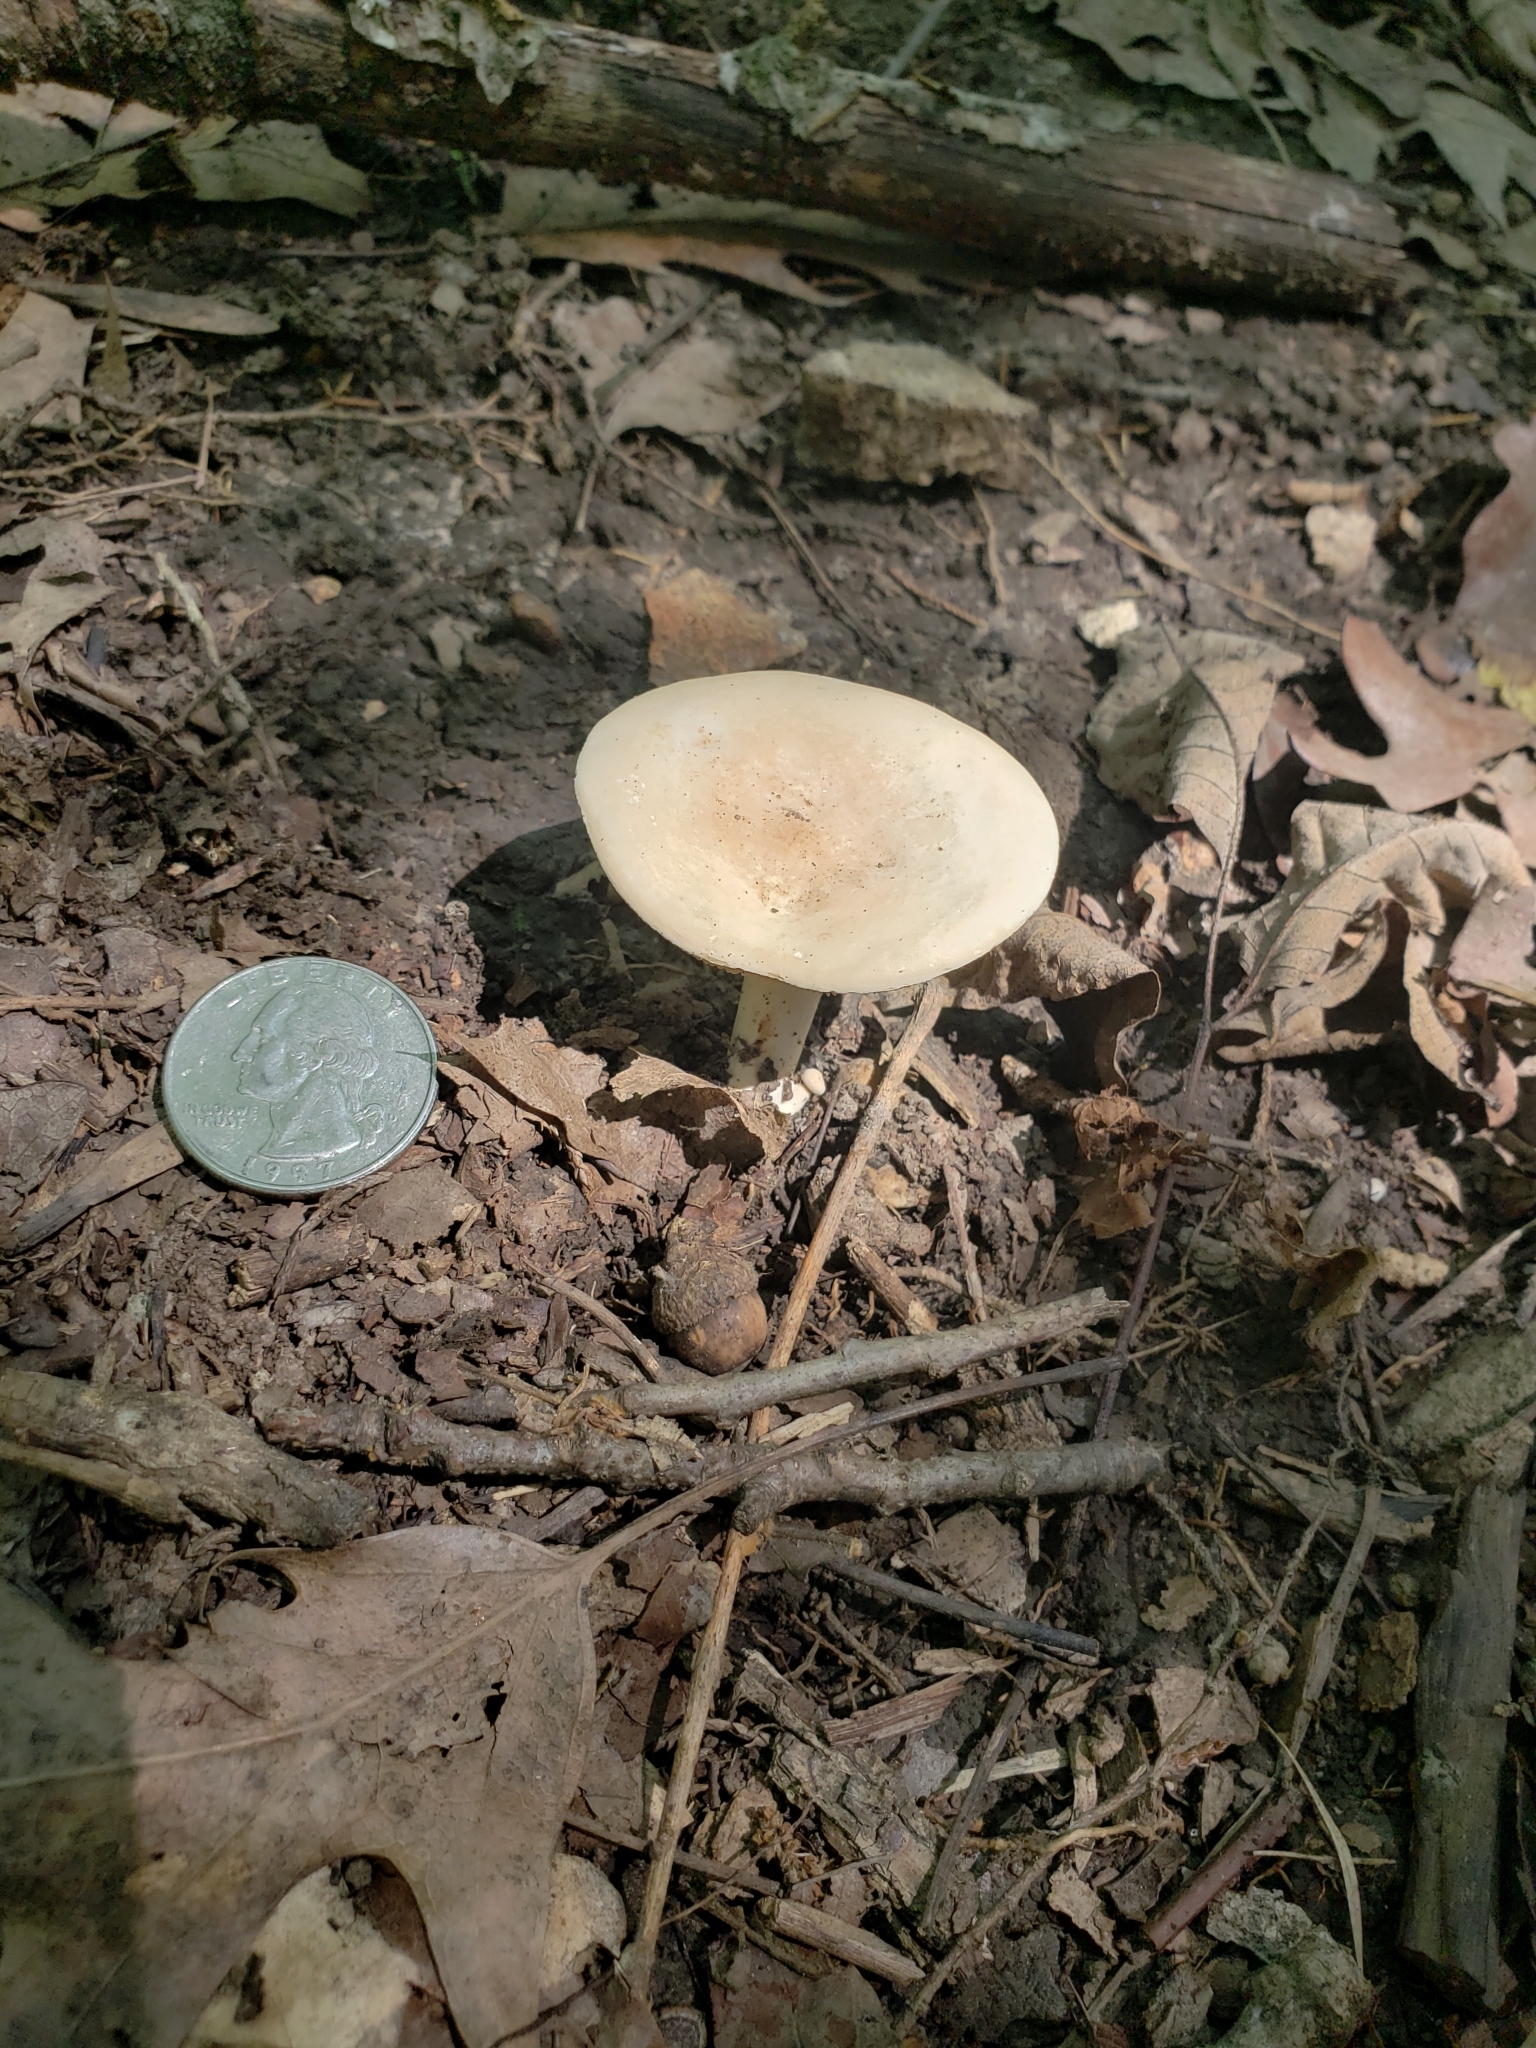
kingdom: Fungi
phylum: Basidiomycota
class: Agaricomycetes
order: Russulales
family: Russulaceae
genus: Lactifluus
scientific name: Lactifluus piperatus
